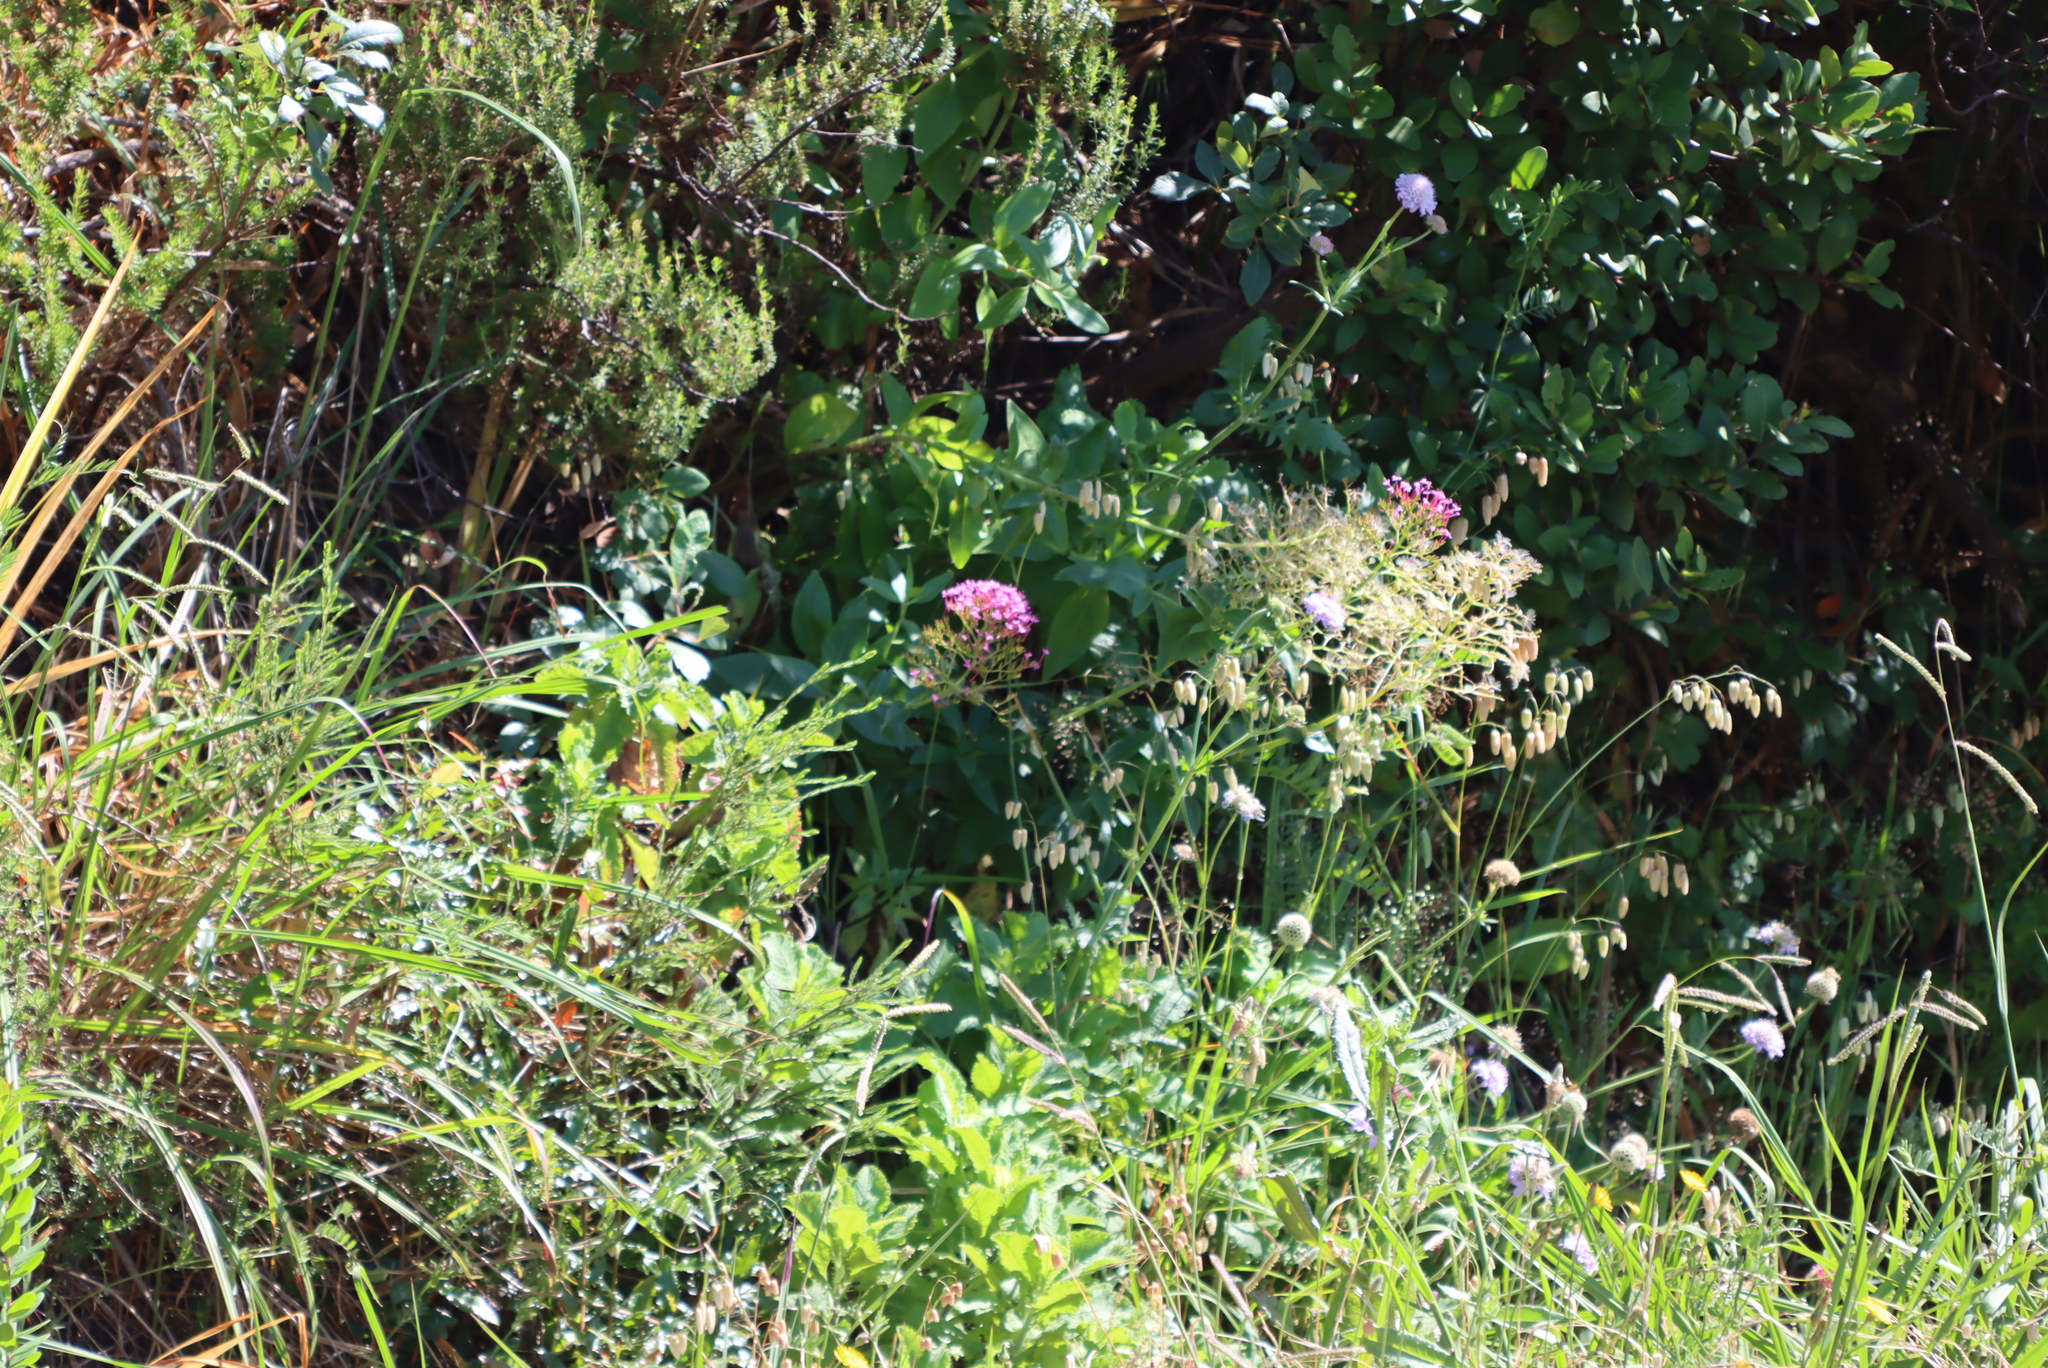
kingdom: Plantae
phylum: Tracheophyta
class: Magnoliopsida
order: Dipsacales
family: Caprifoliaceae
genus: Centranthus
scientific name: Centranthus ruber
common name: Red valerian
